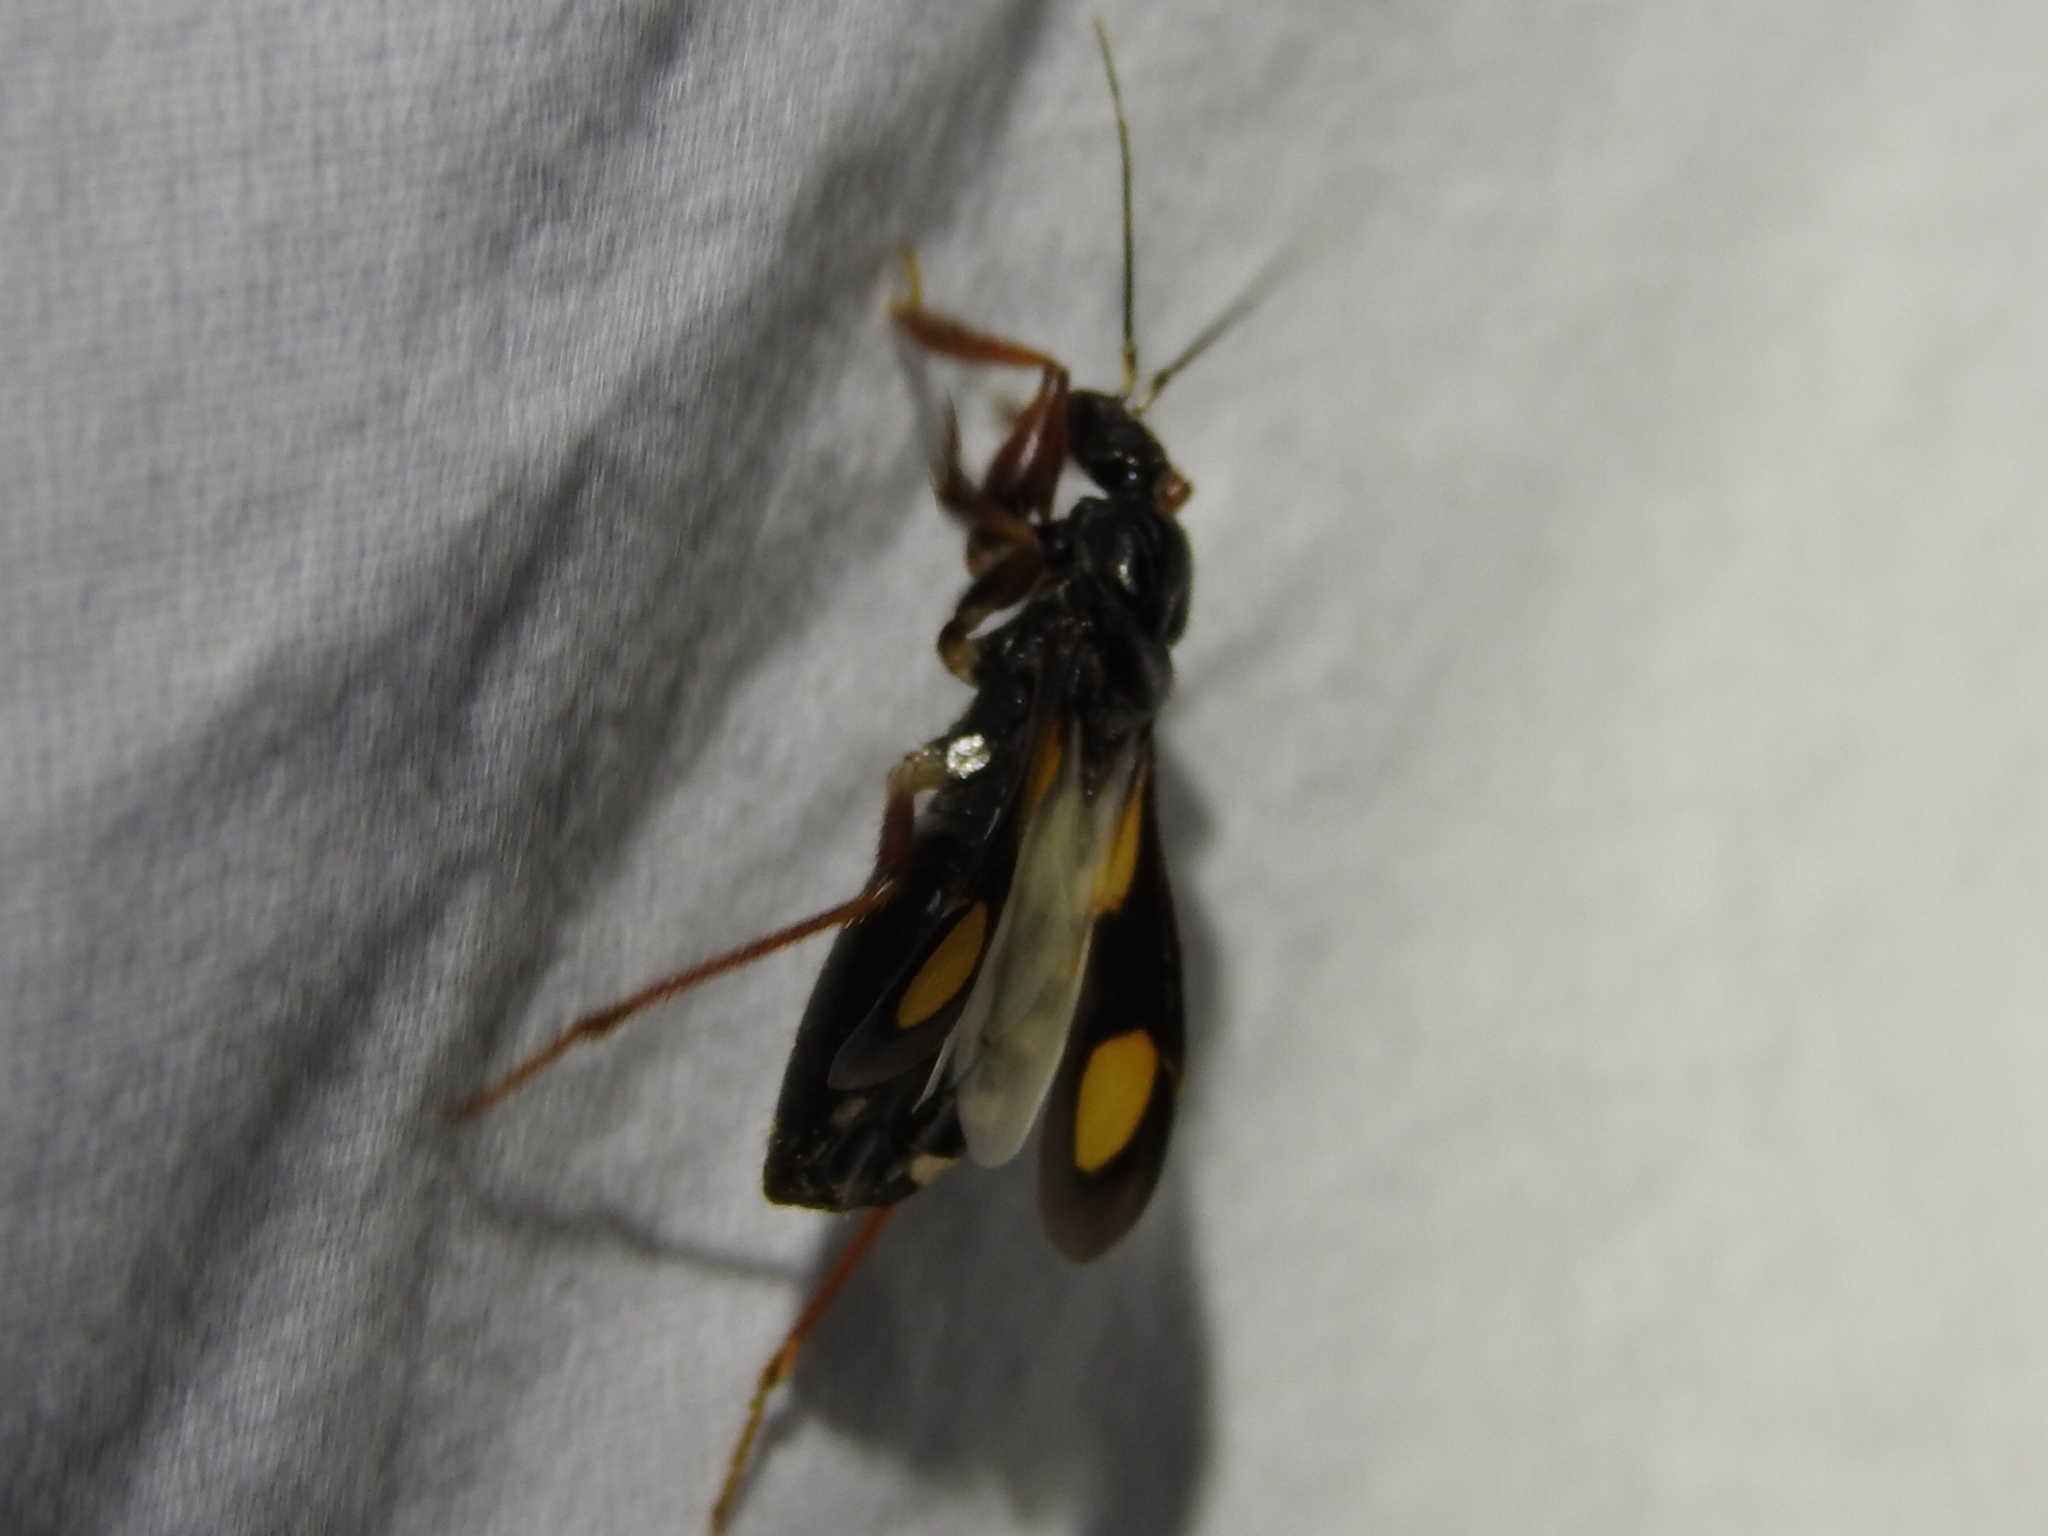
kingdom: Animalia
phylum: Arthropoda
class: Insecta
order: Hemiptera
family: Reduviidae
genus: Rasahus
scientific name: Rasahus hamatus
